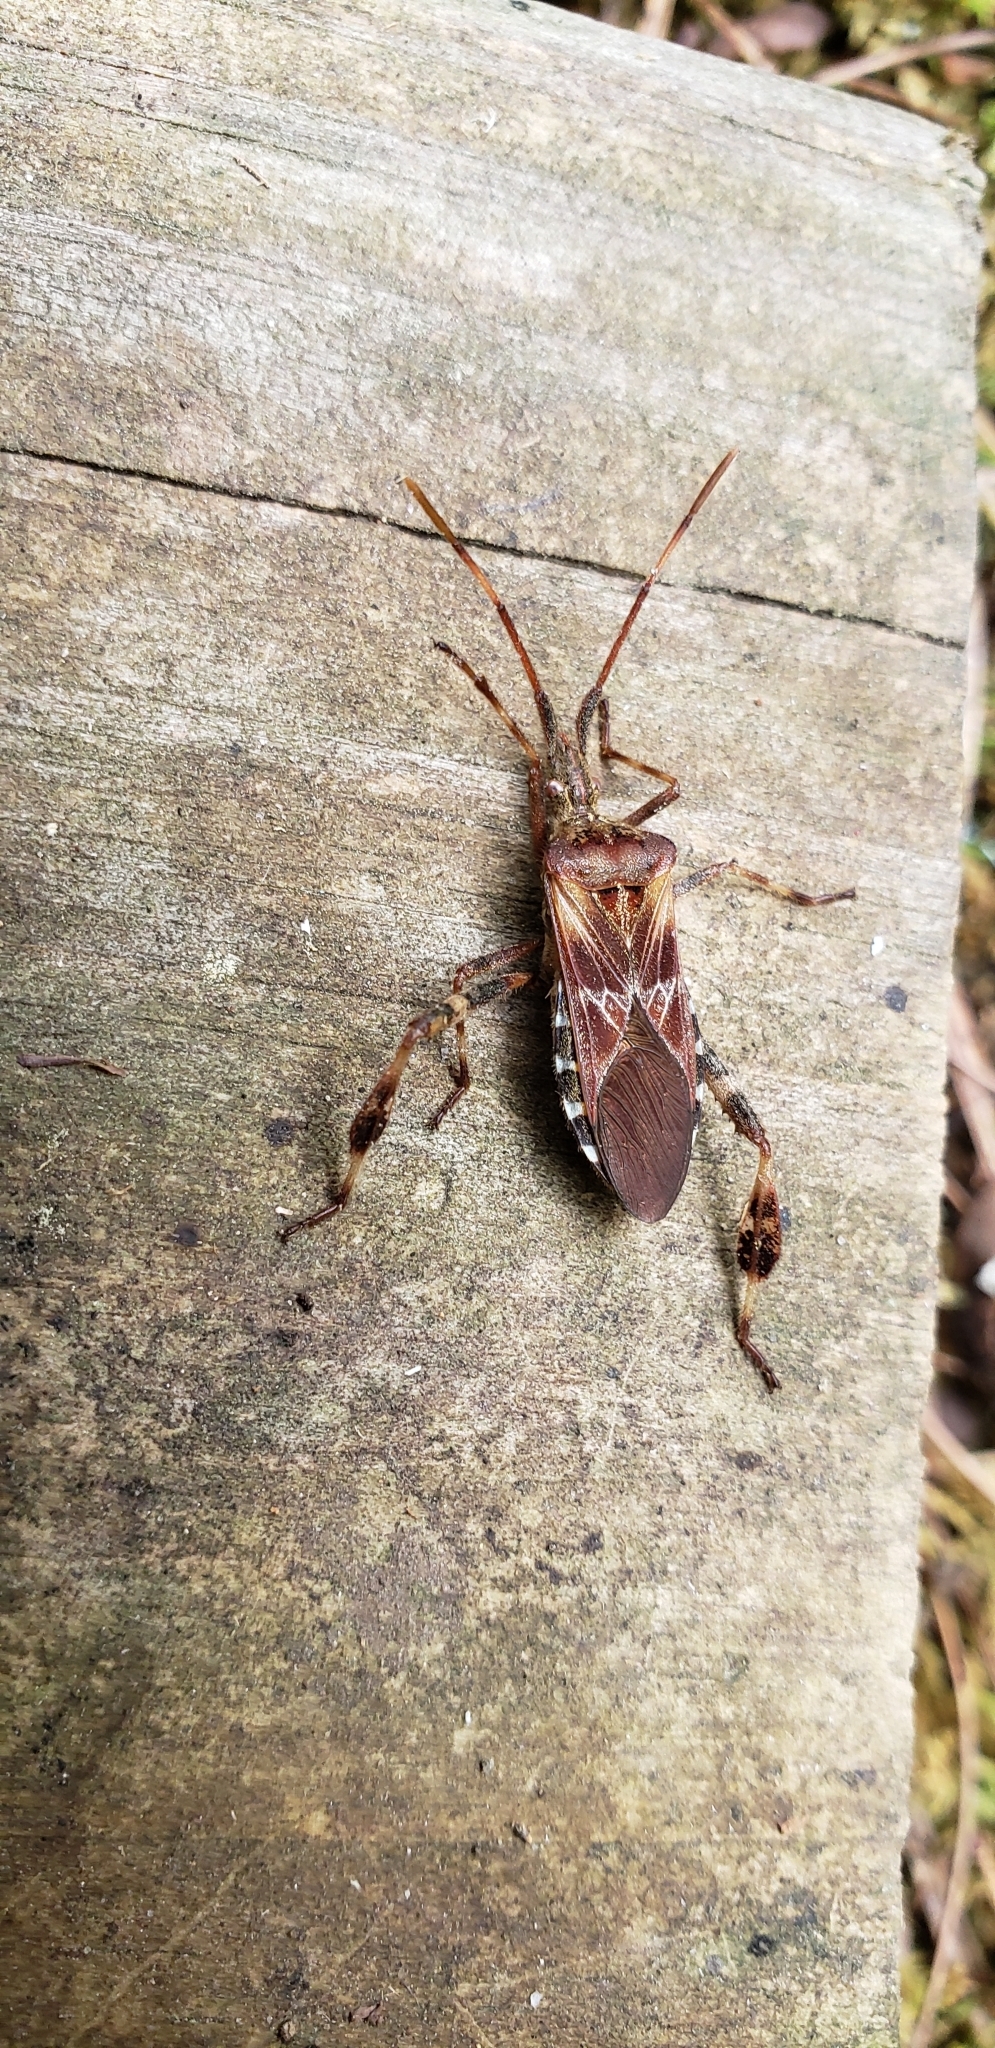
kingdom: Animalia
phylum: Arthropoda
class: Insecta
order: Hemiptera
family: Coreidae
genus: Leptoglossus
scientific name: Leptoglossus occidentalis
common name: Western conifer-seed bug
